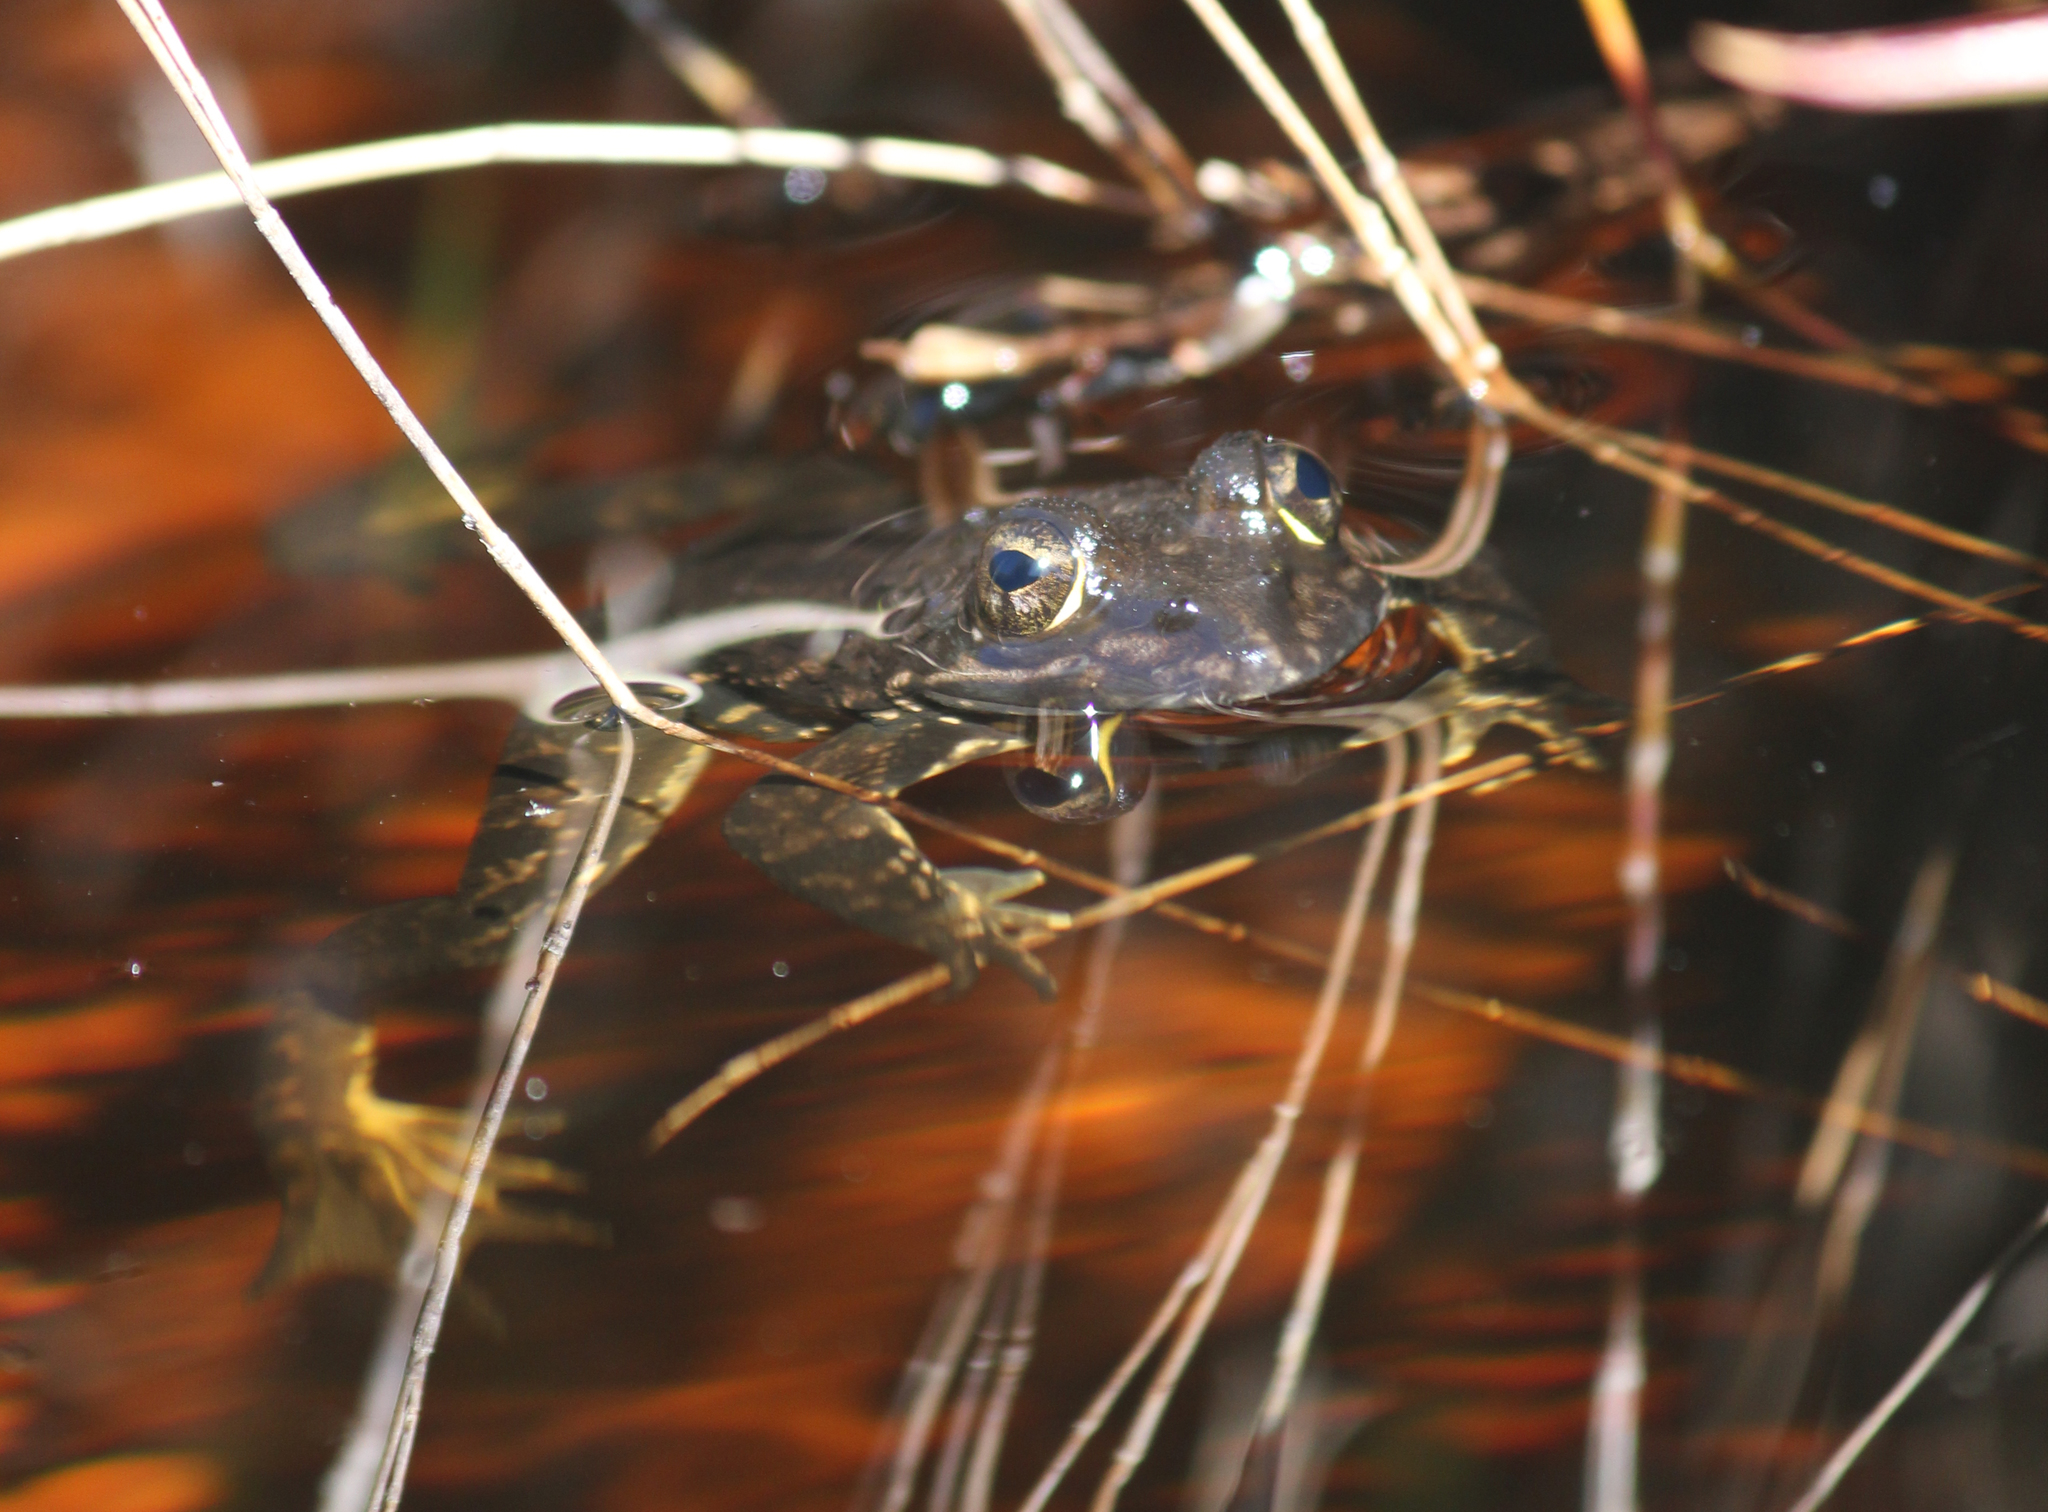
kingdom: Animalia
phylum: Chordata
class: Amphibia
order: Anura
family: Pyxicephalidae
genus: Amietia
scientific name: Amietia fuscigula
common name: Cape rana
